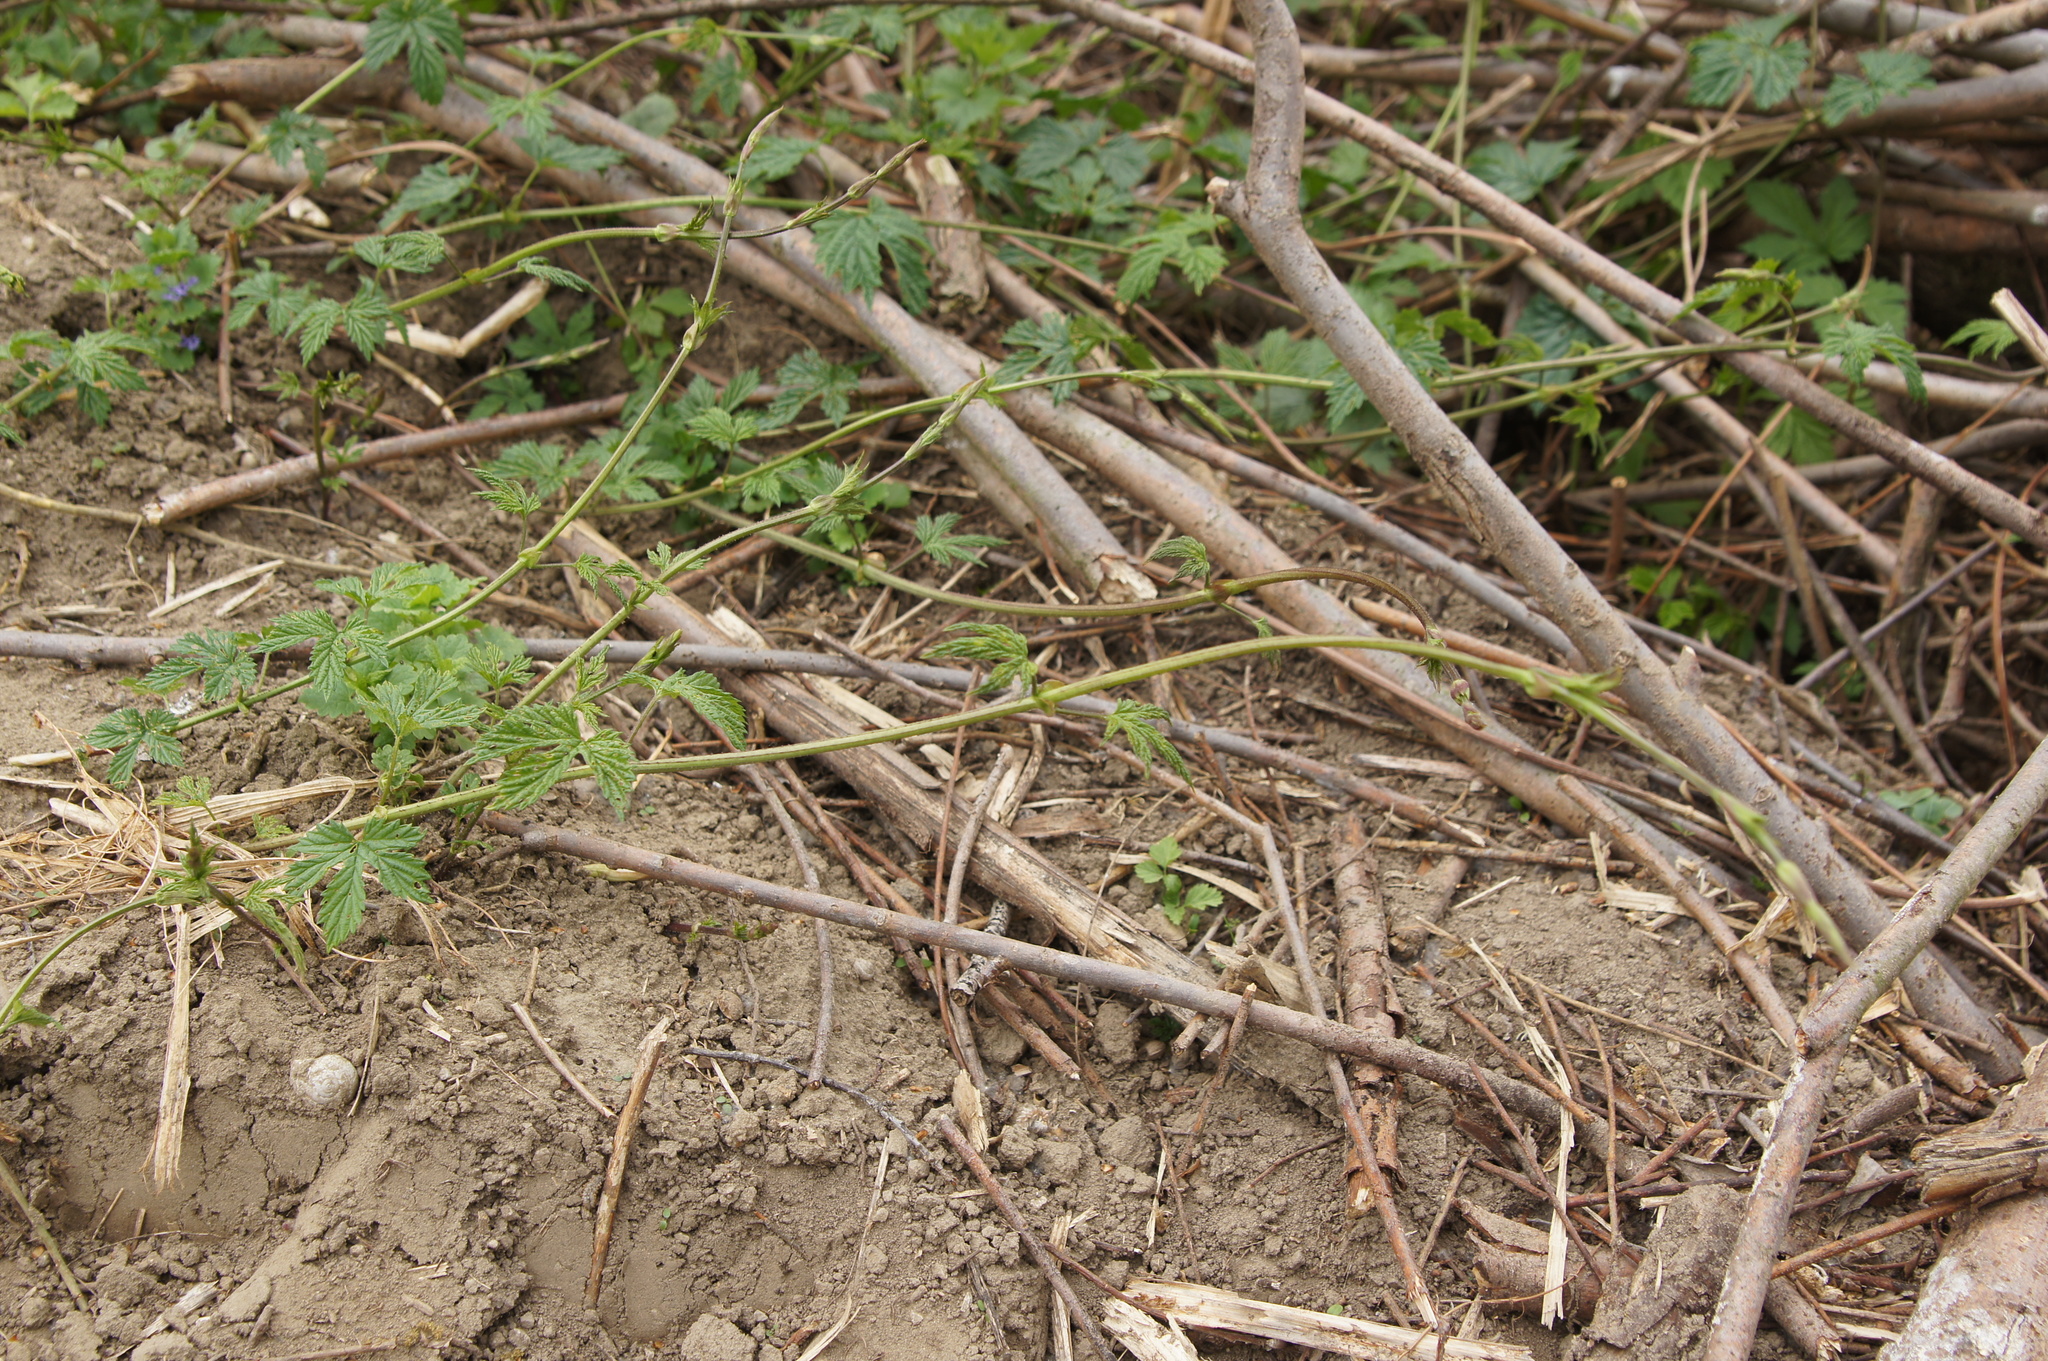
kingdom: Plantae
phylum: Tracheophyta
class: Magnoliopsida
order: Rosales
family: Cannabaceae
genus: Humulus
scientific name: Humulus lupulus
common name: Hop
